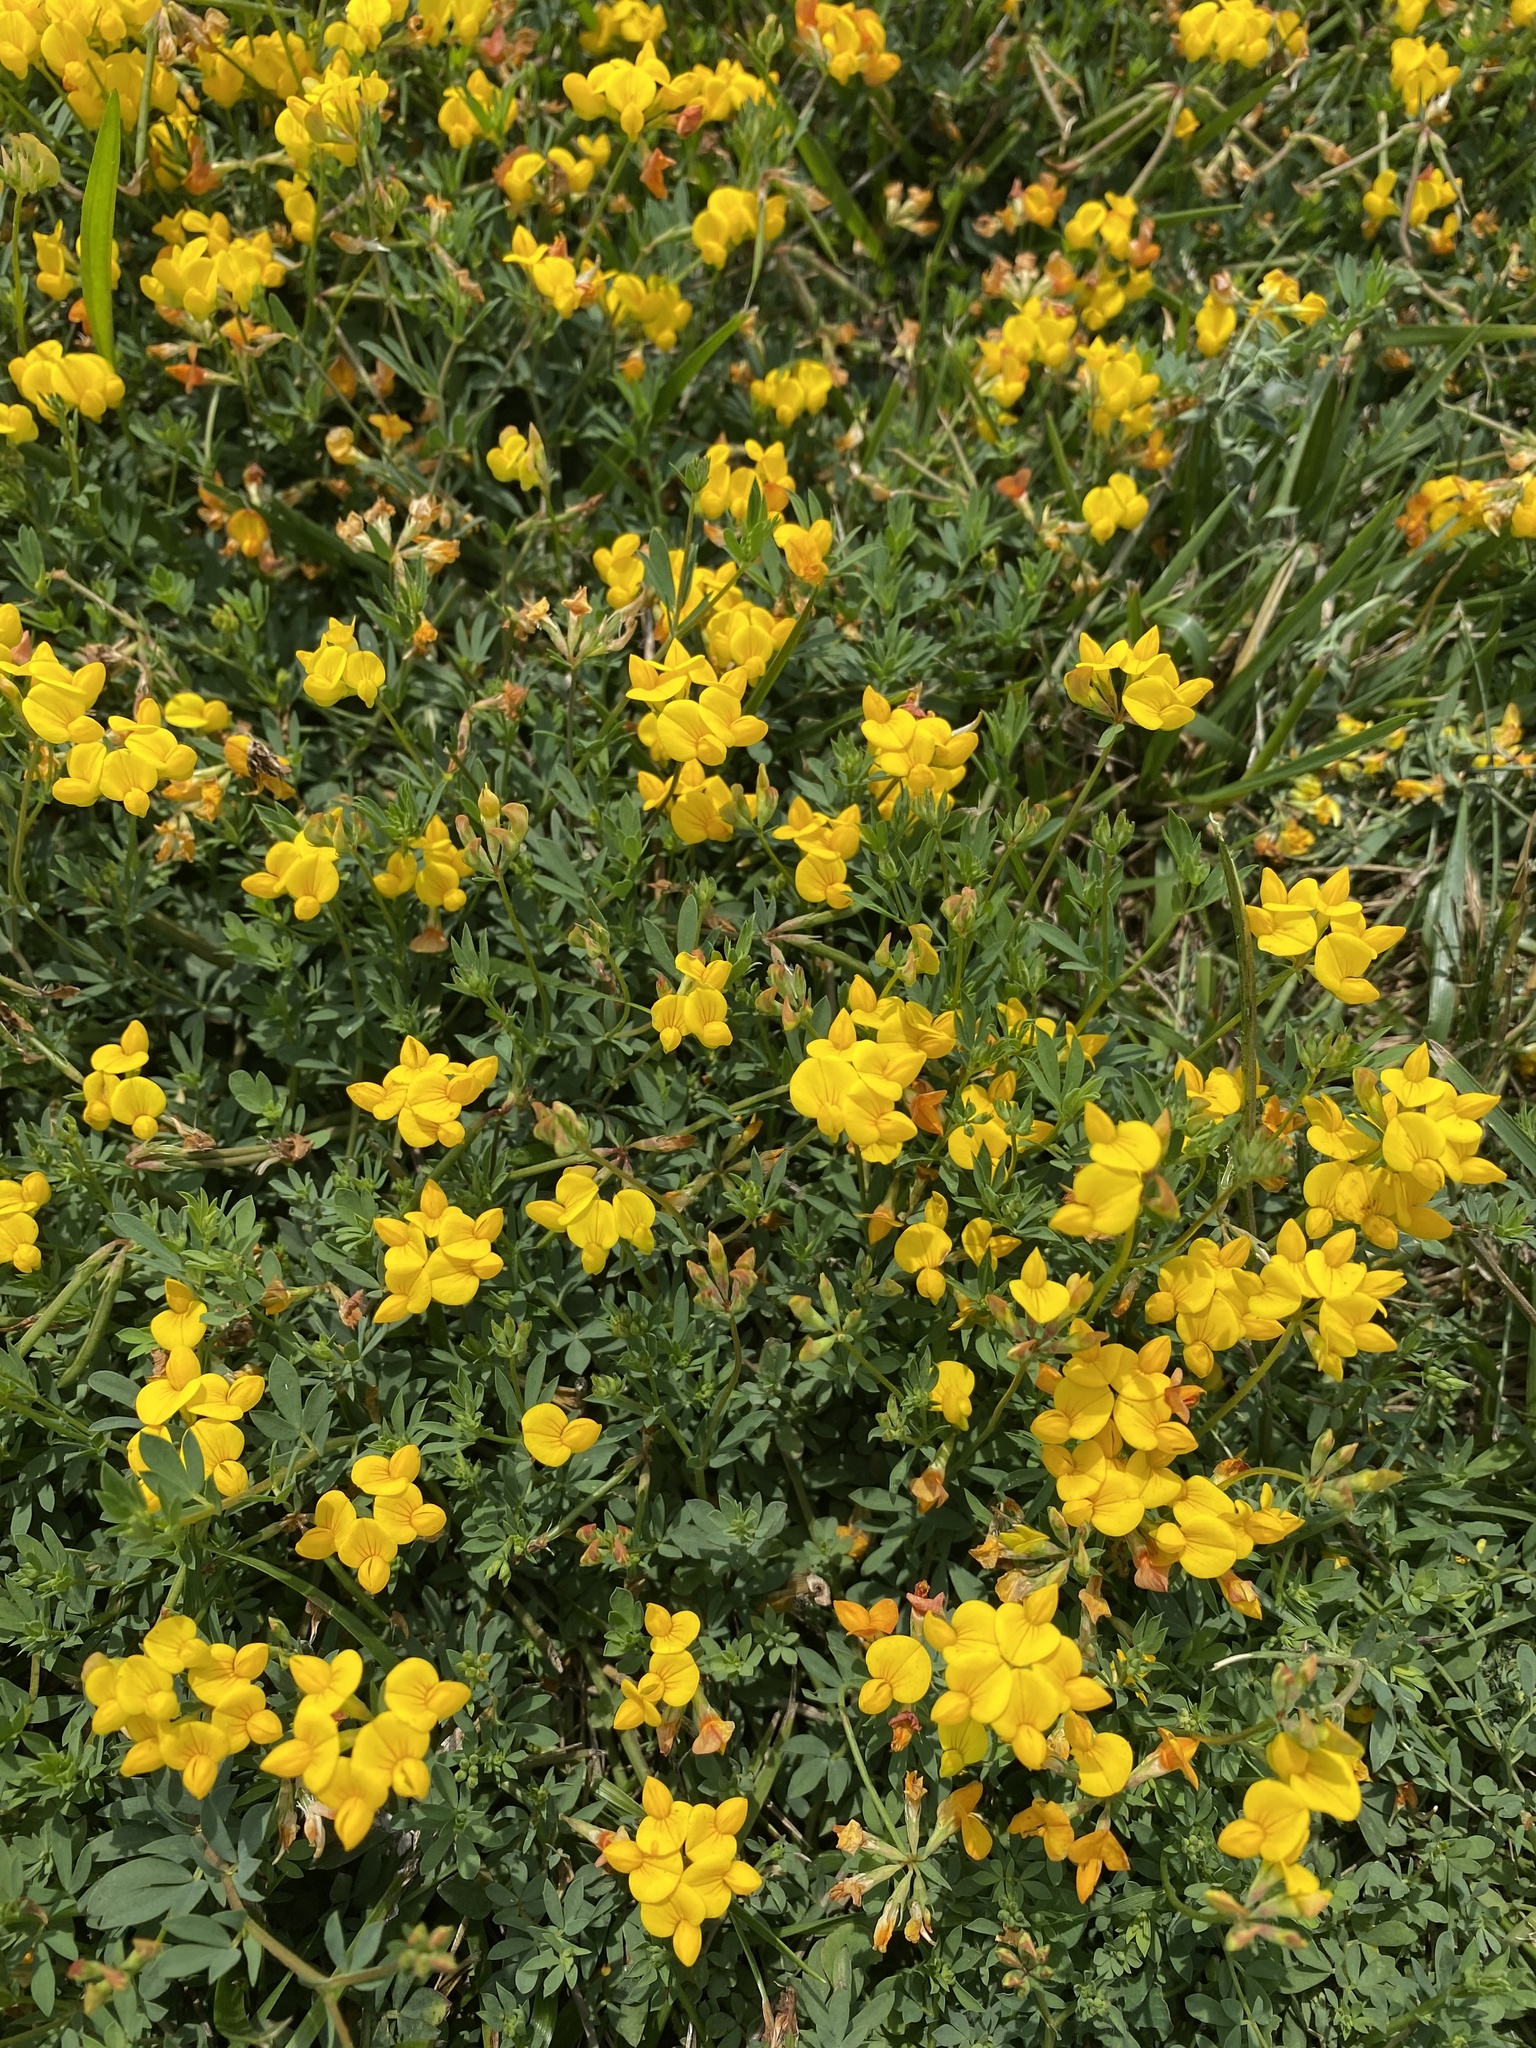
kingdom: Plantae
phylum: Tracheophyta
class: Magnoliopsida
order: Fabales
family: Fabaceae
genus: Lotus
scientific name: Lotus tenuis
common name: Narrow-leaved bird's-foot-trefoil
